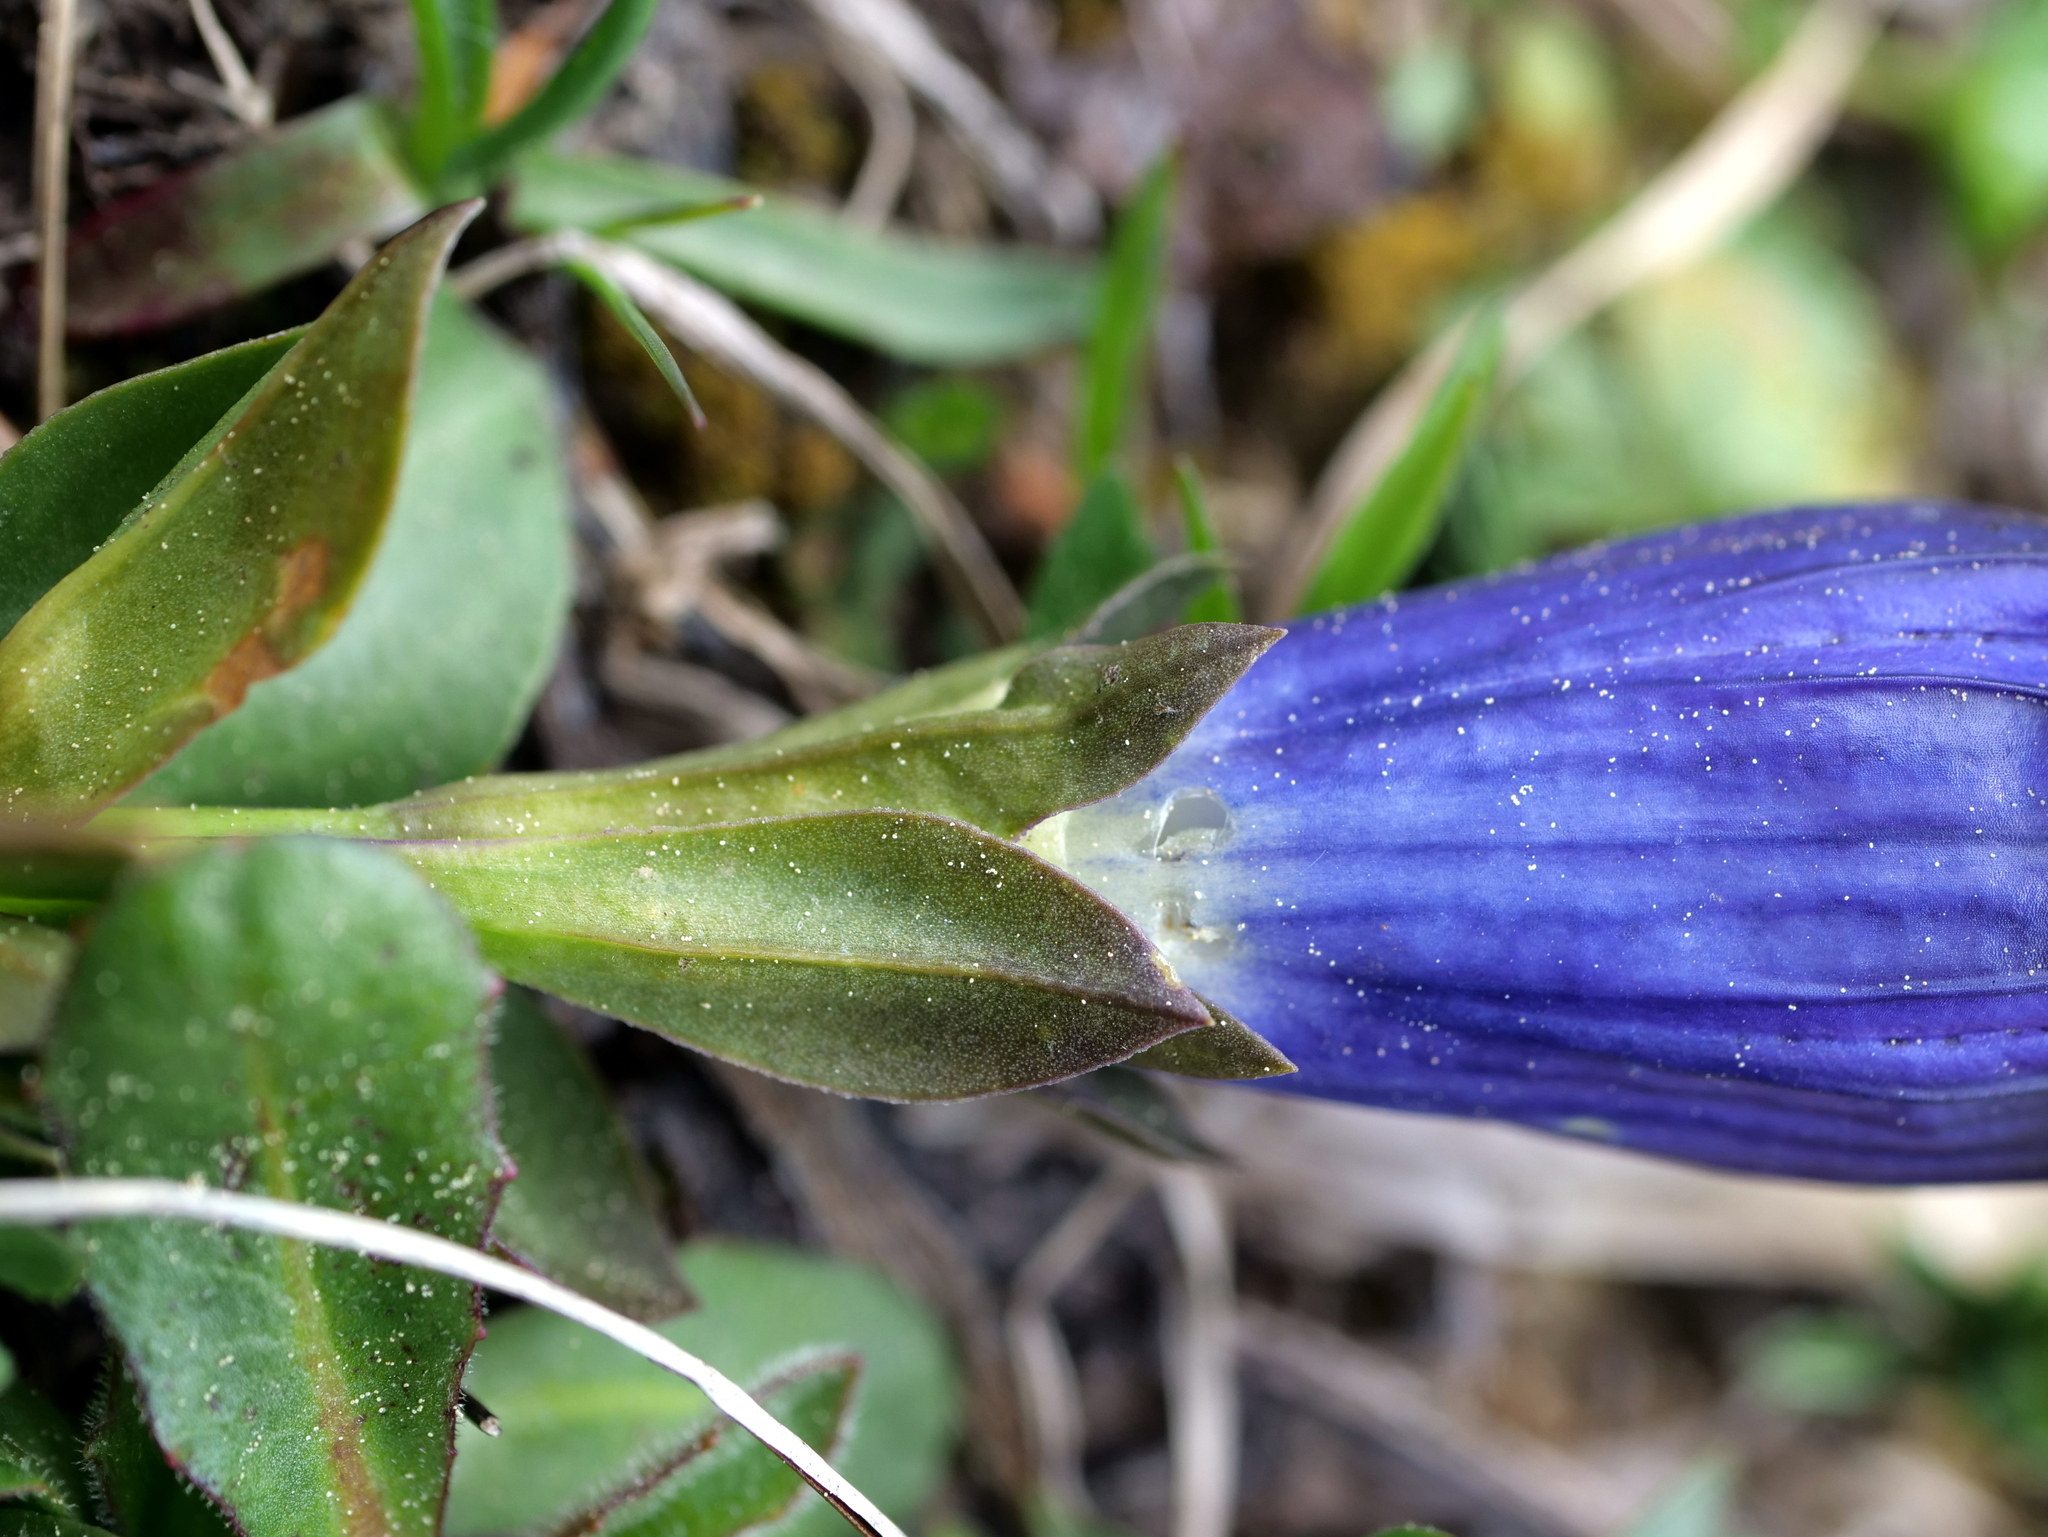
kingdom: Plantae
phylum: Tracheophyta
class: Magnoliopsida
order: Gentianales
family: Gentianaceae
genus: Gentiana
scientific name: Gentiana acaulis
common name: Trumpet gentian
